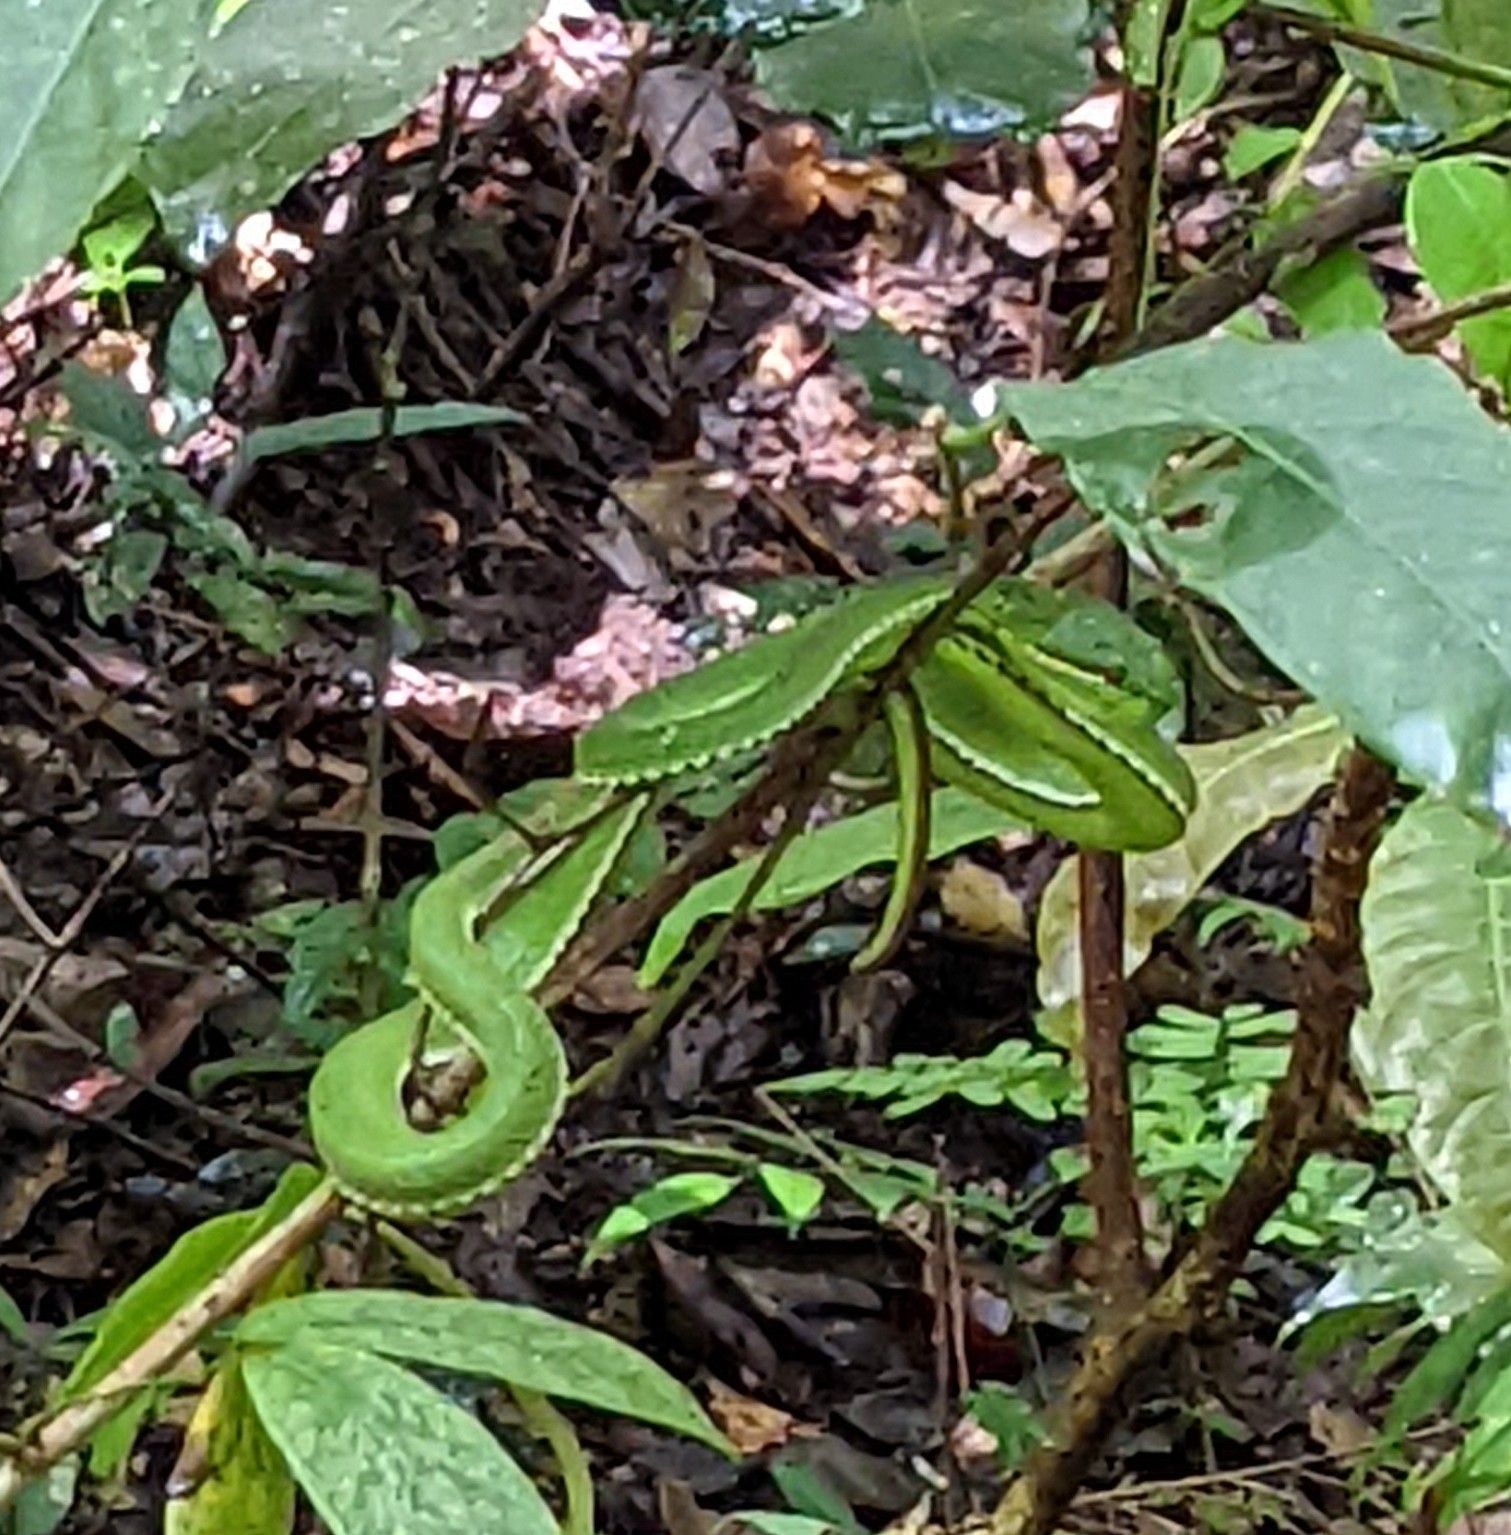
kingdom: Animalia
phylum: Chordata
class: Squamata
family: Viperidae
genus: Trimeresurus
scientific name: Trimeresurus popeiorum
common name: Pope's bamboo pit viper
